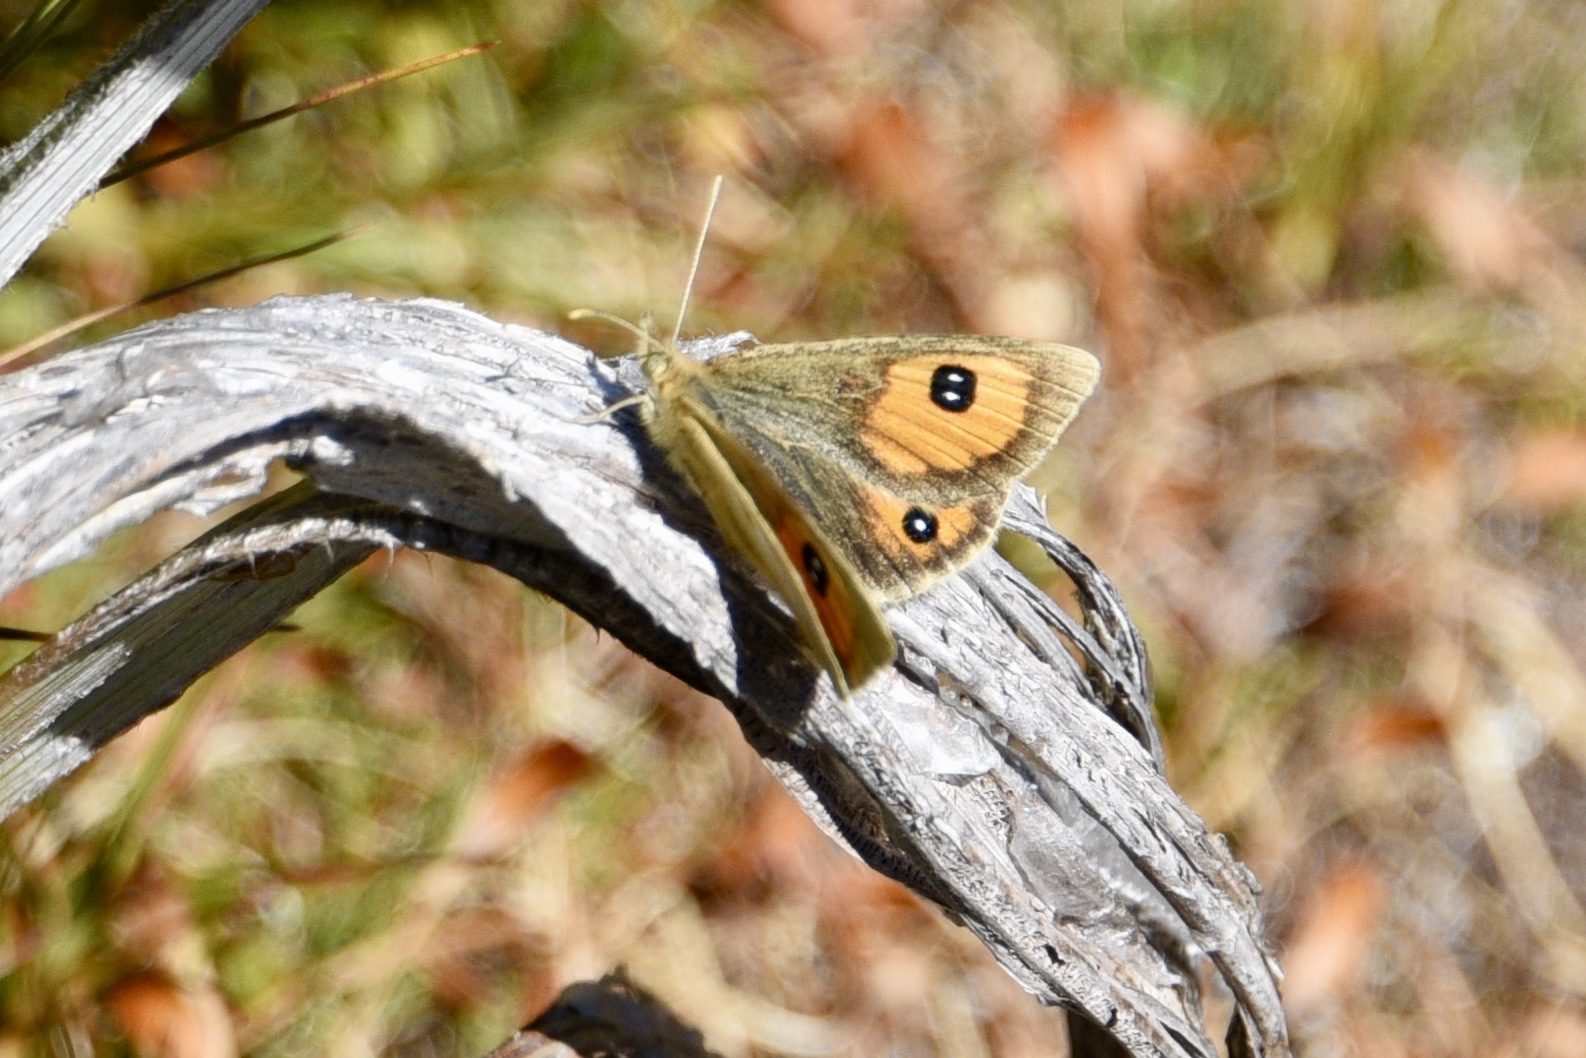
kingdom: Animalia
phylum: Arthropoda
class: Insecta
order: Lepidoptera
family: Nymphalidae
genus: Argyrophenga
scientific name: Argyrophenga janitae
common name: Janita's tussock
